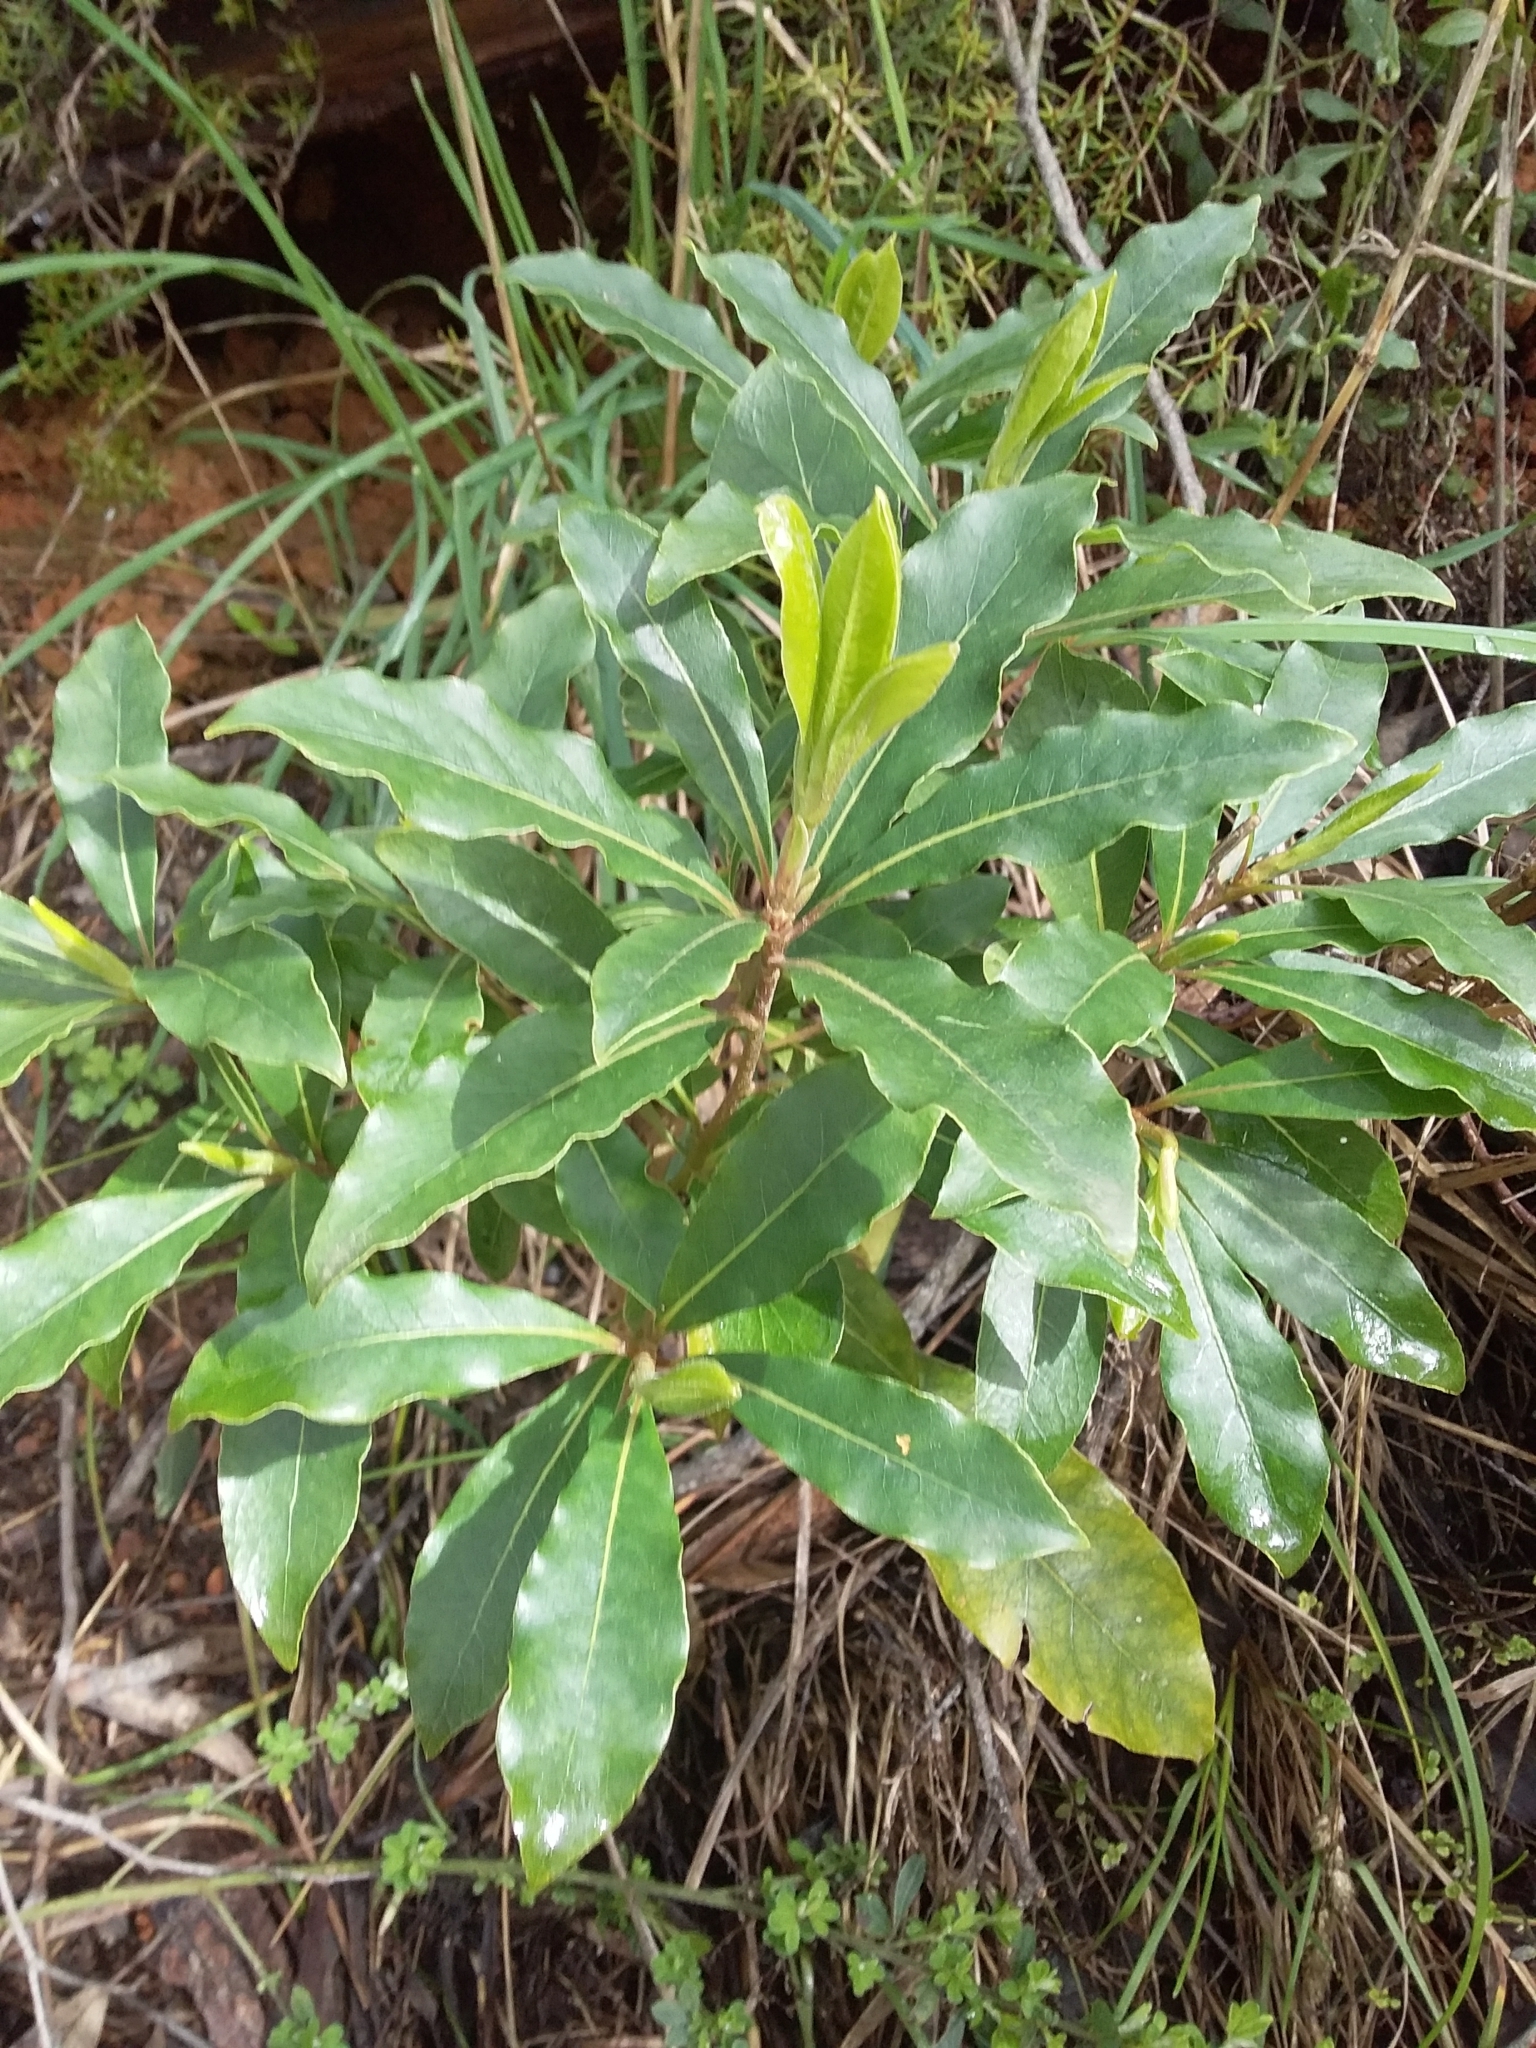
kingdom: Plantae
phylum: Tracheophyta
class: Magnoliopsida
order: Apiales
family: Pittosporaceae
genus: Pittosporum
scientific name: Pittosporum undulatum
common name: Australian cheesewood
